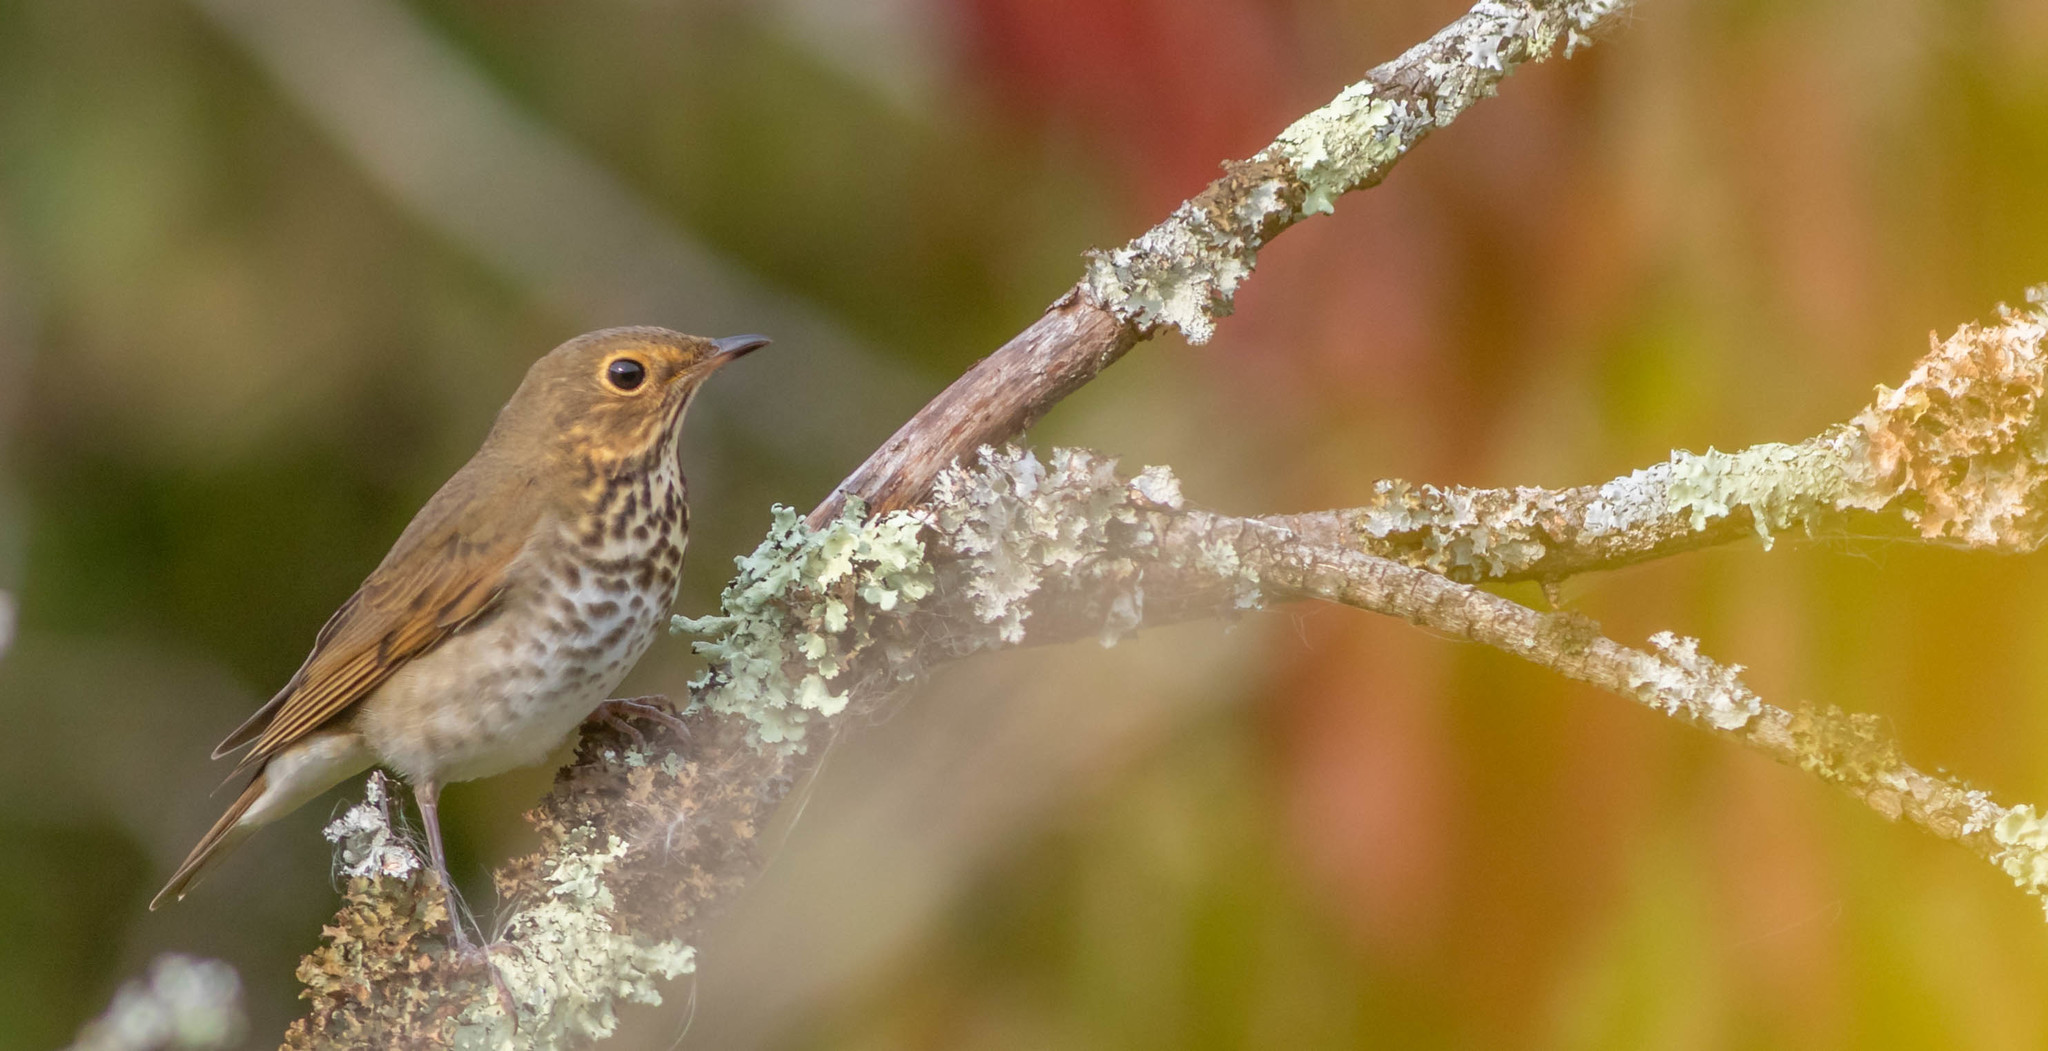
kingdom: Animalia
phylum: Chordata
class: Aves
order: Passeriformes
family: Turdidae
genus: Catharus
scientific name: Catharus ustulatus
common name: Swainson's thrush
